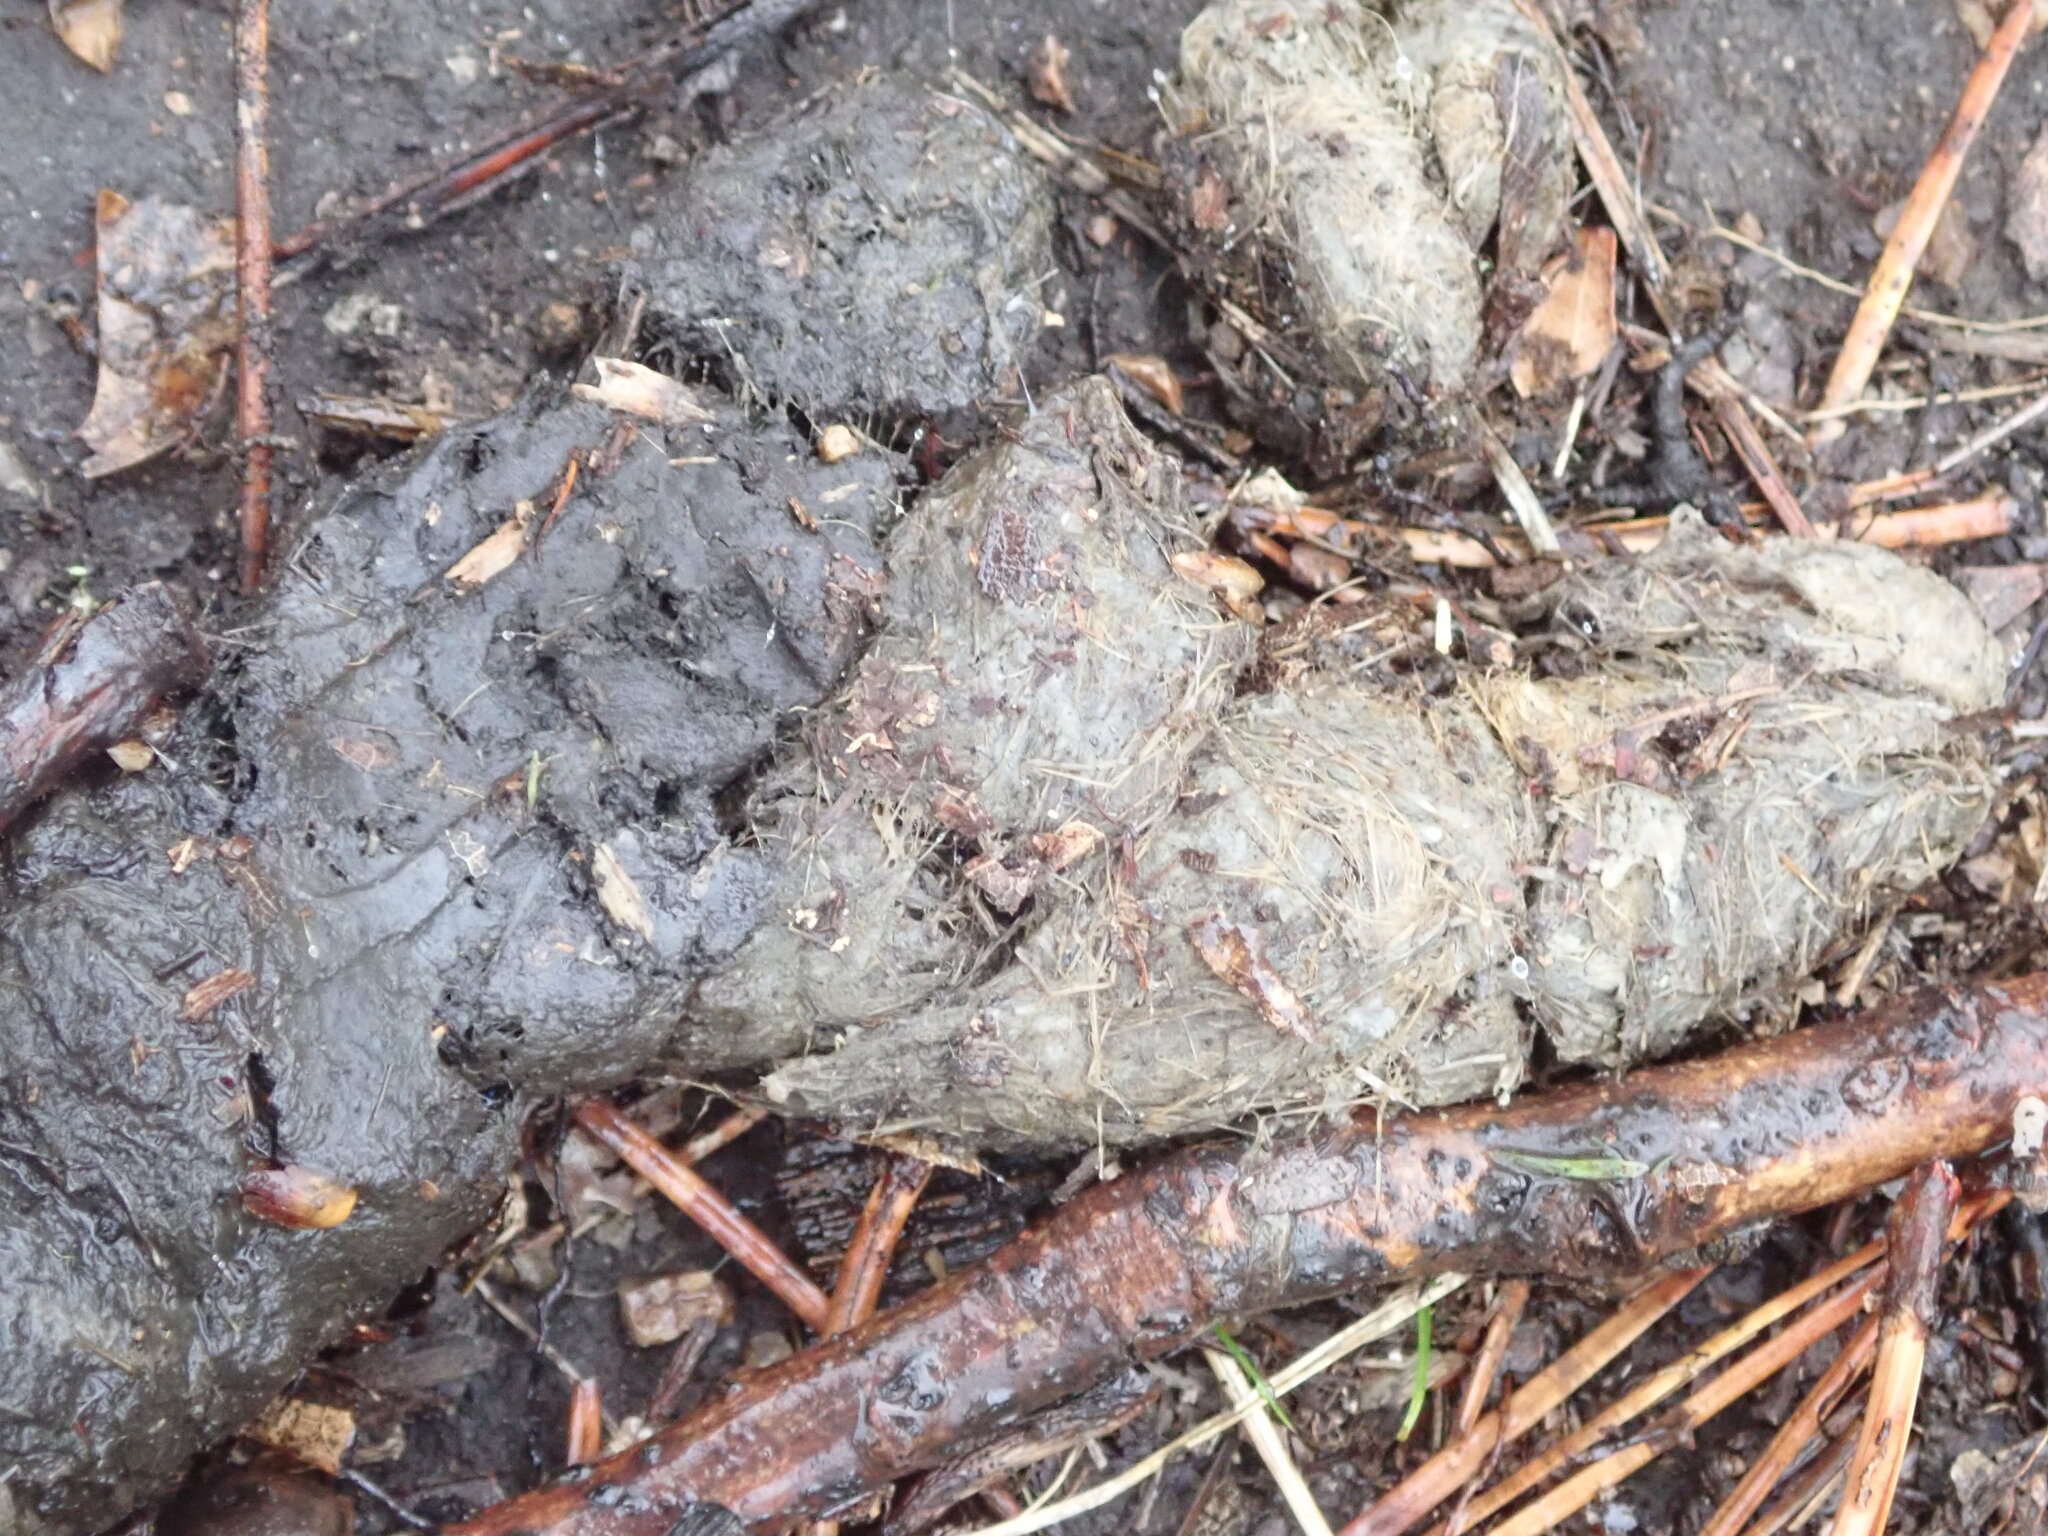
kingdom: Animalia
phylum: Chordata
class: Mammalia
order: Carnivora
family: Canidae
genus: Canis
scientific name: Canis latrans
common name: Coyote
